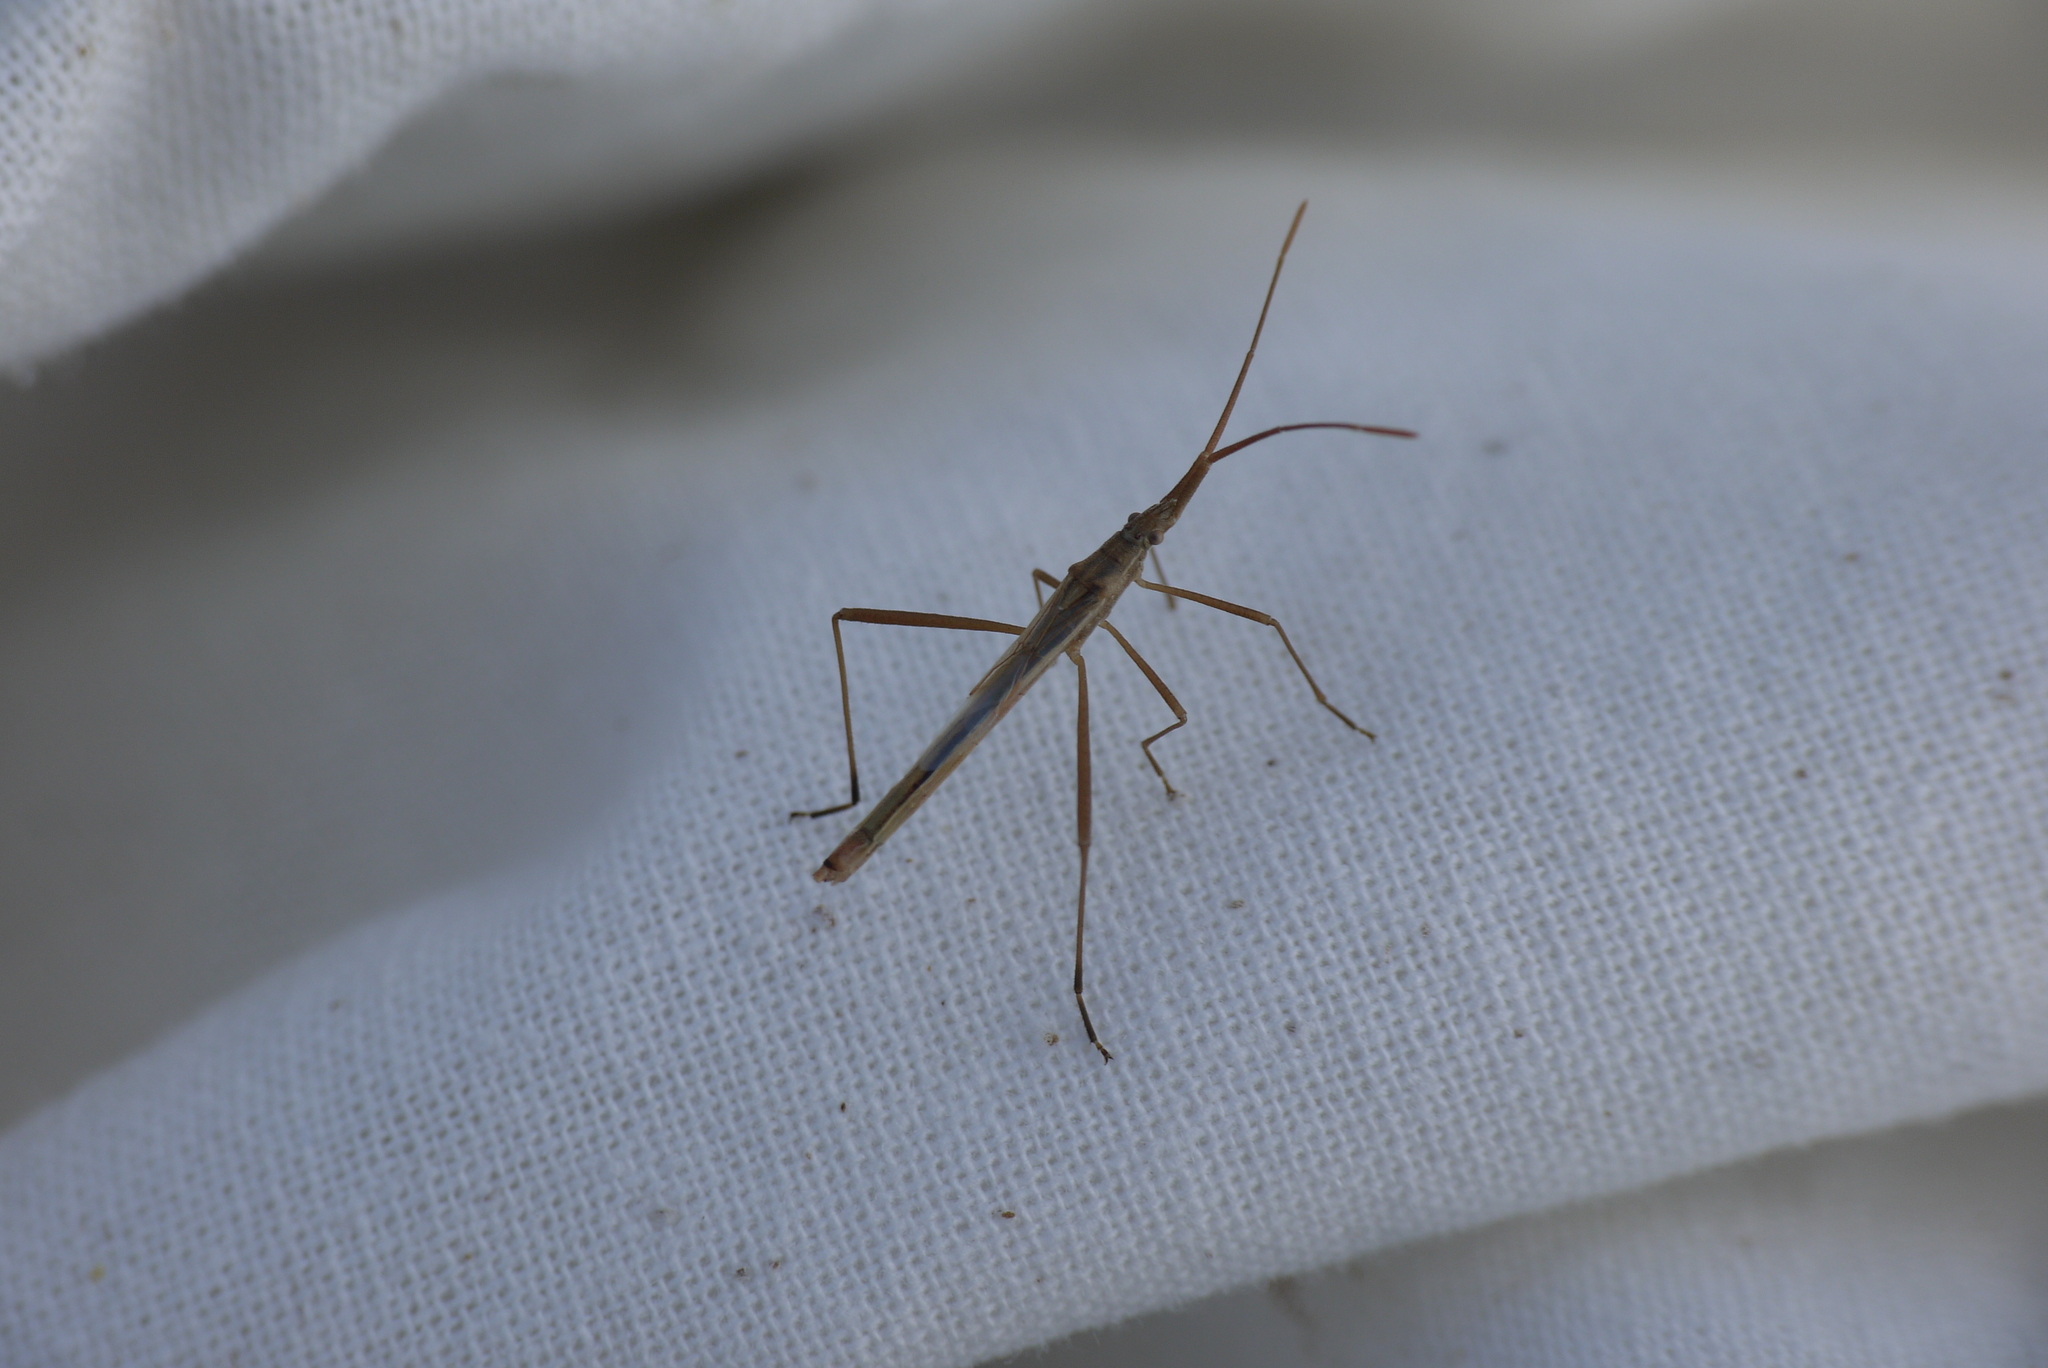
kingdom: Animalia
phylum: Arthropoda
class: Insecta
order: Hemiptera
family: Rhopalidae
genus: Chorosoma
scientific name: Chorosoma schillingii
